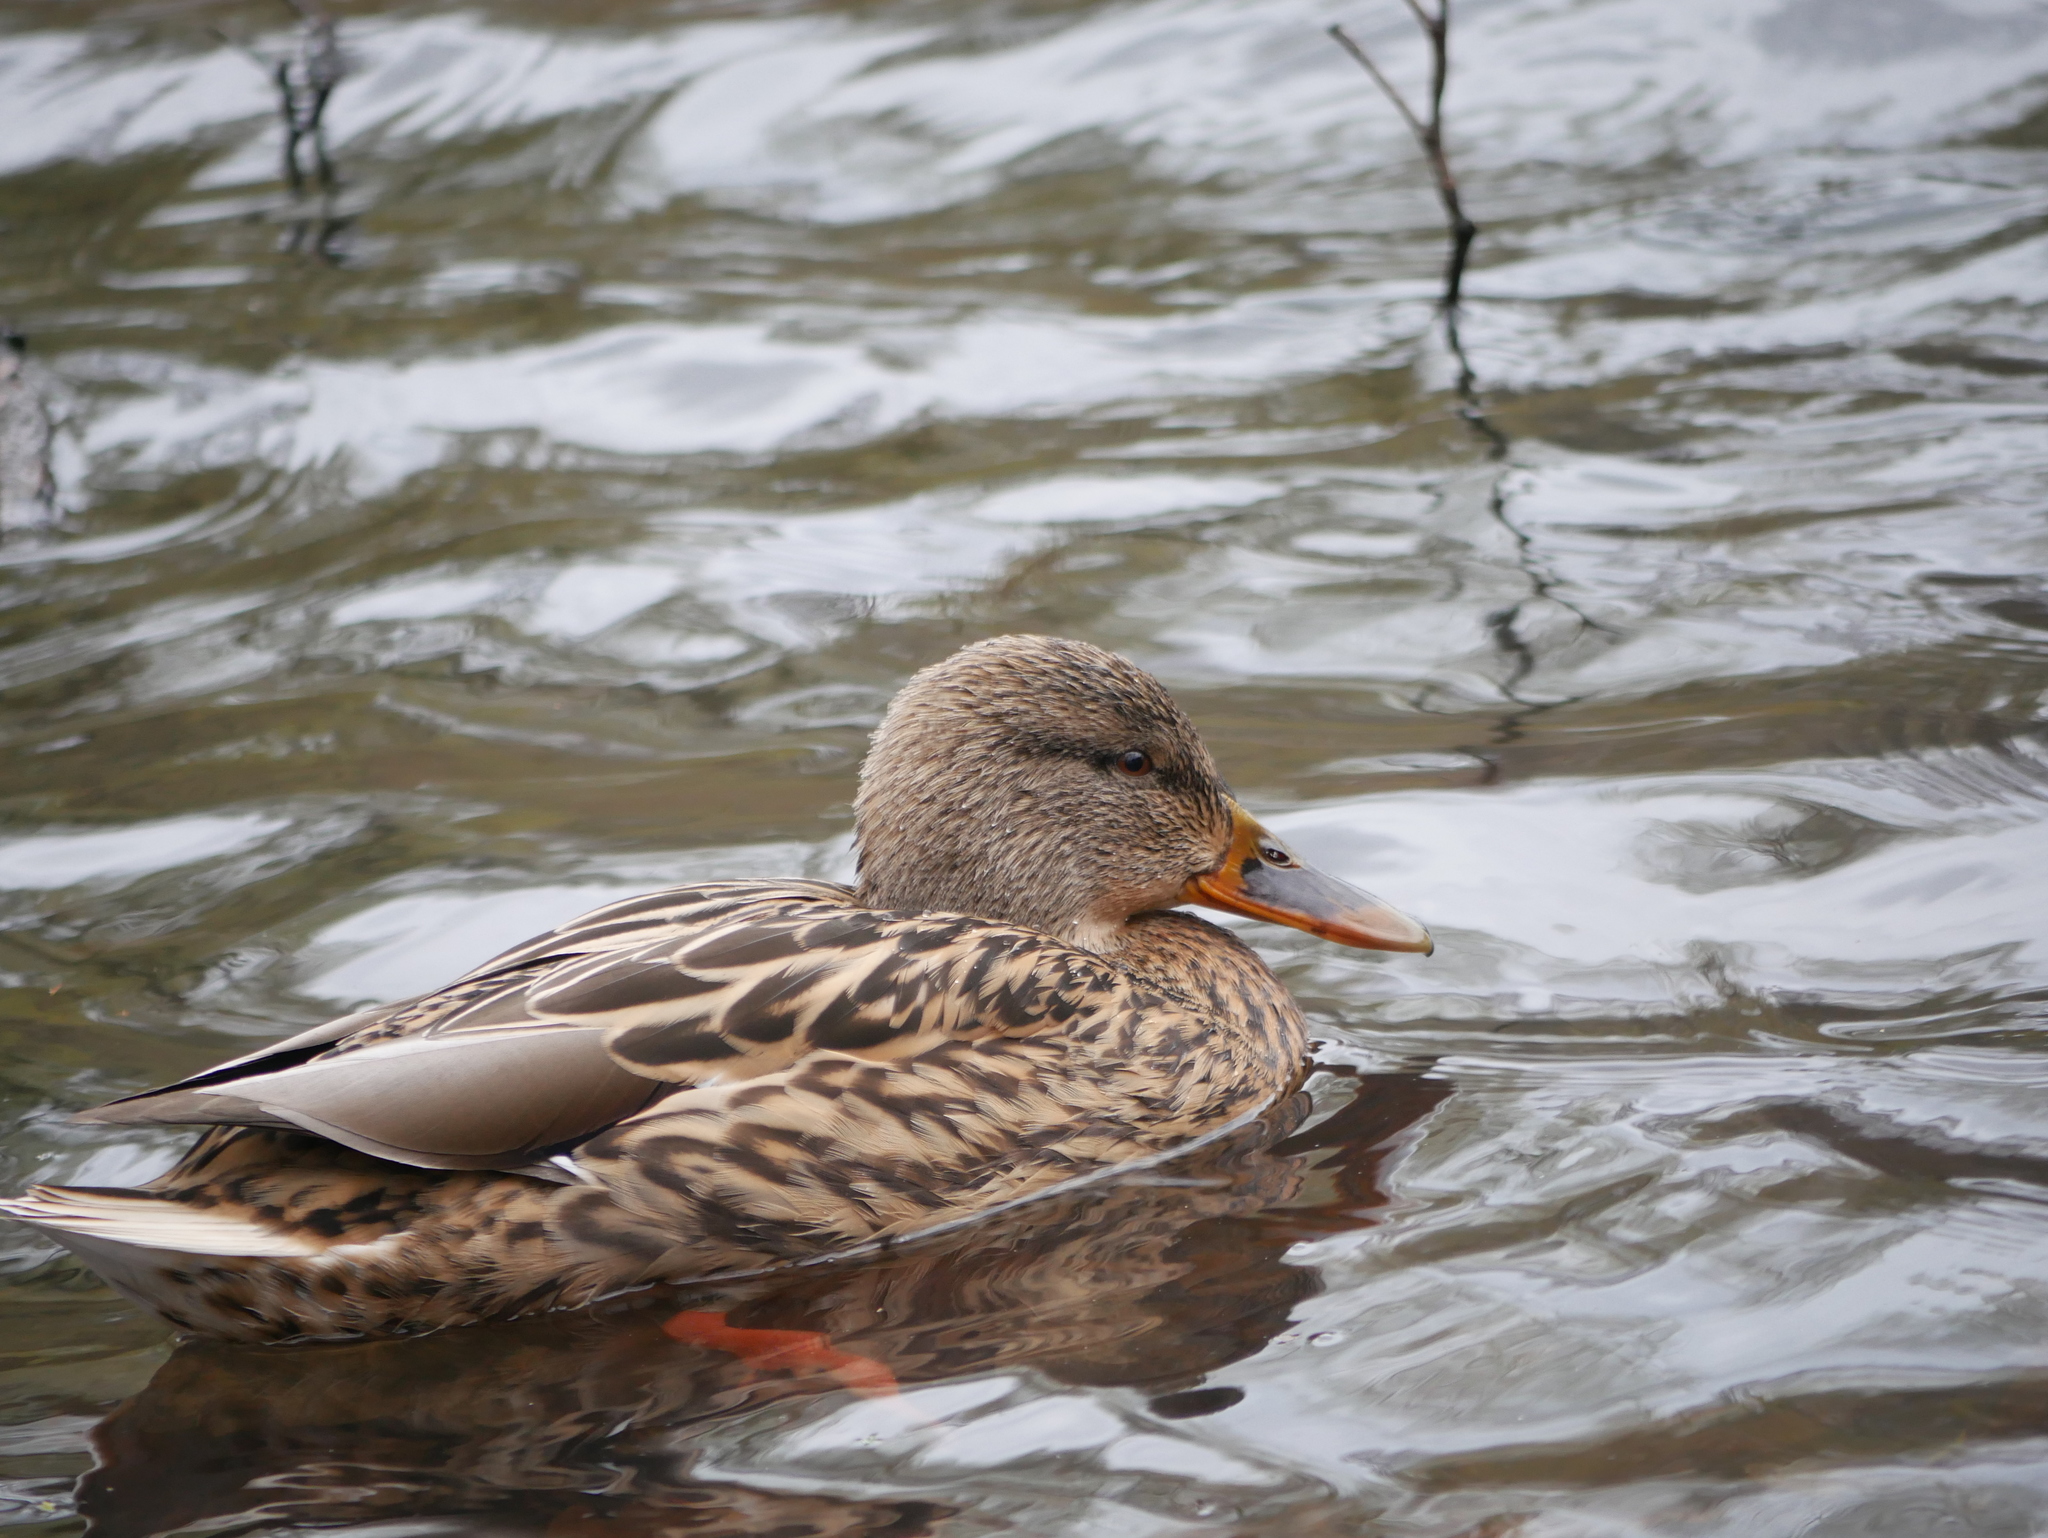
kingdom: Animalia
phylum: Chordata
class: Aves
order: Anseriformes
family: Anatidae
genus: Anas
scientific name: Anas platyrhynchos
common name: Mallard
